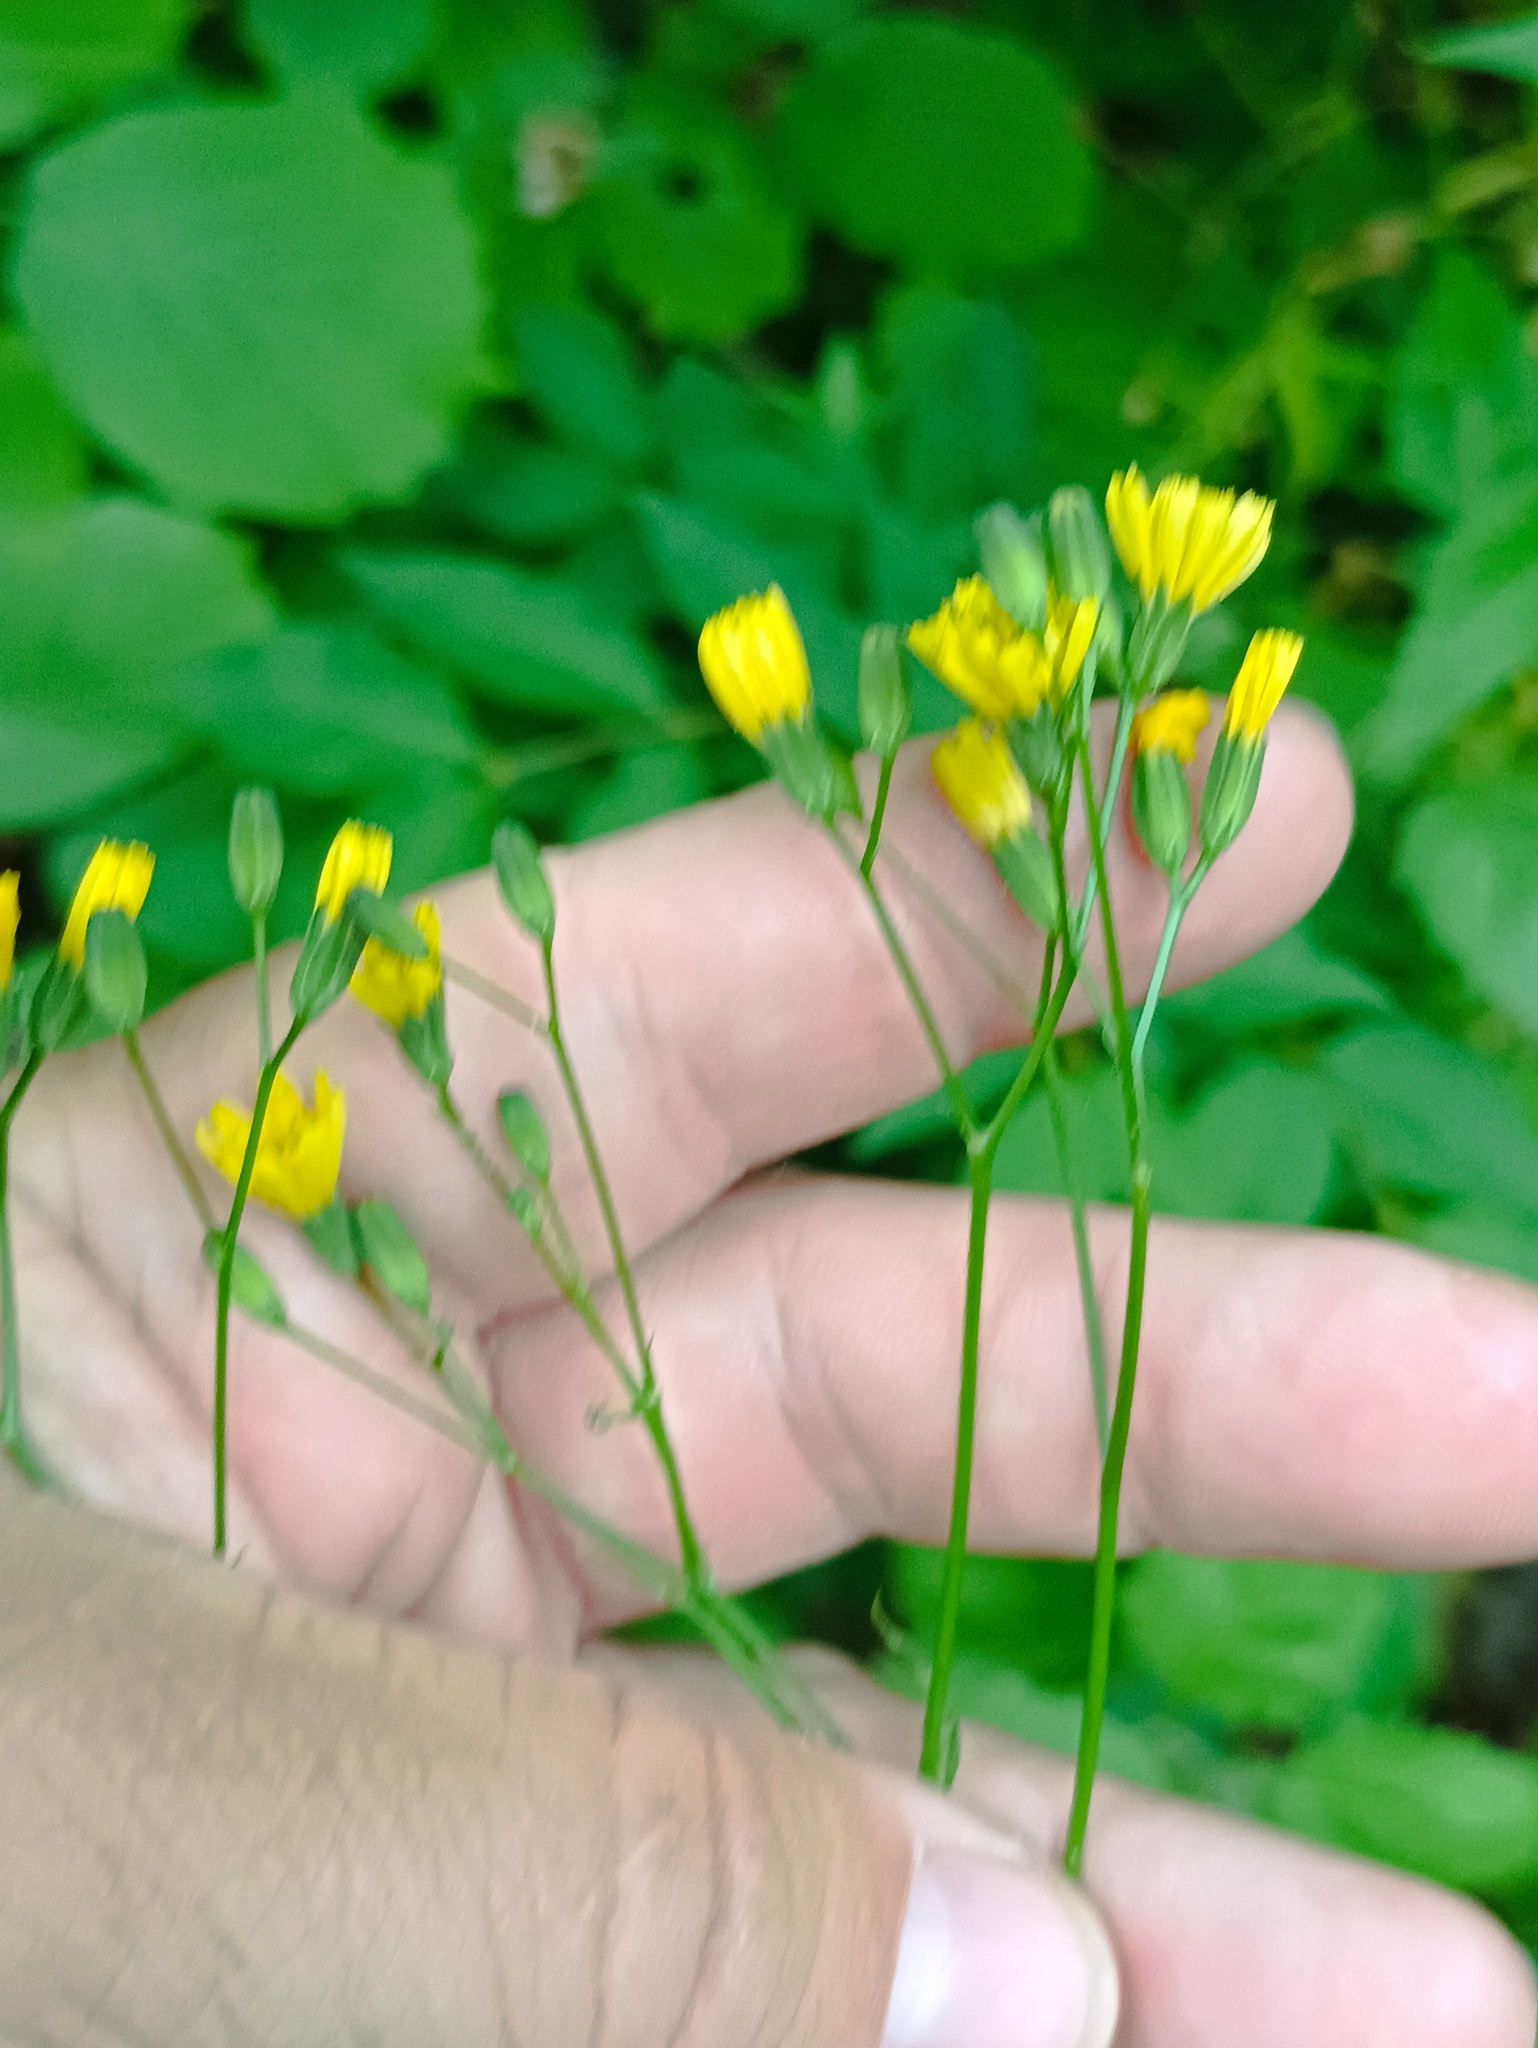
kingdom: Plantae
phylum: Tracheophyta
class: Magnoliopsida
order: Asterales
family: Asteraceae
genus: Lapsana
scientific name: Lapsana communis
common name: Nipplewort
